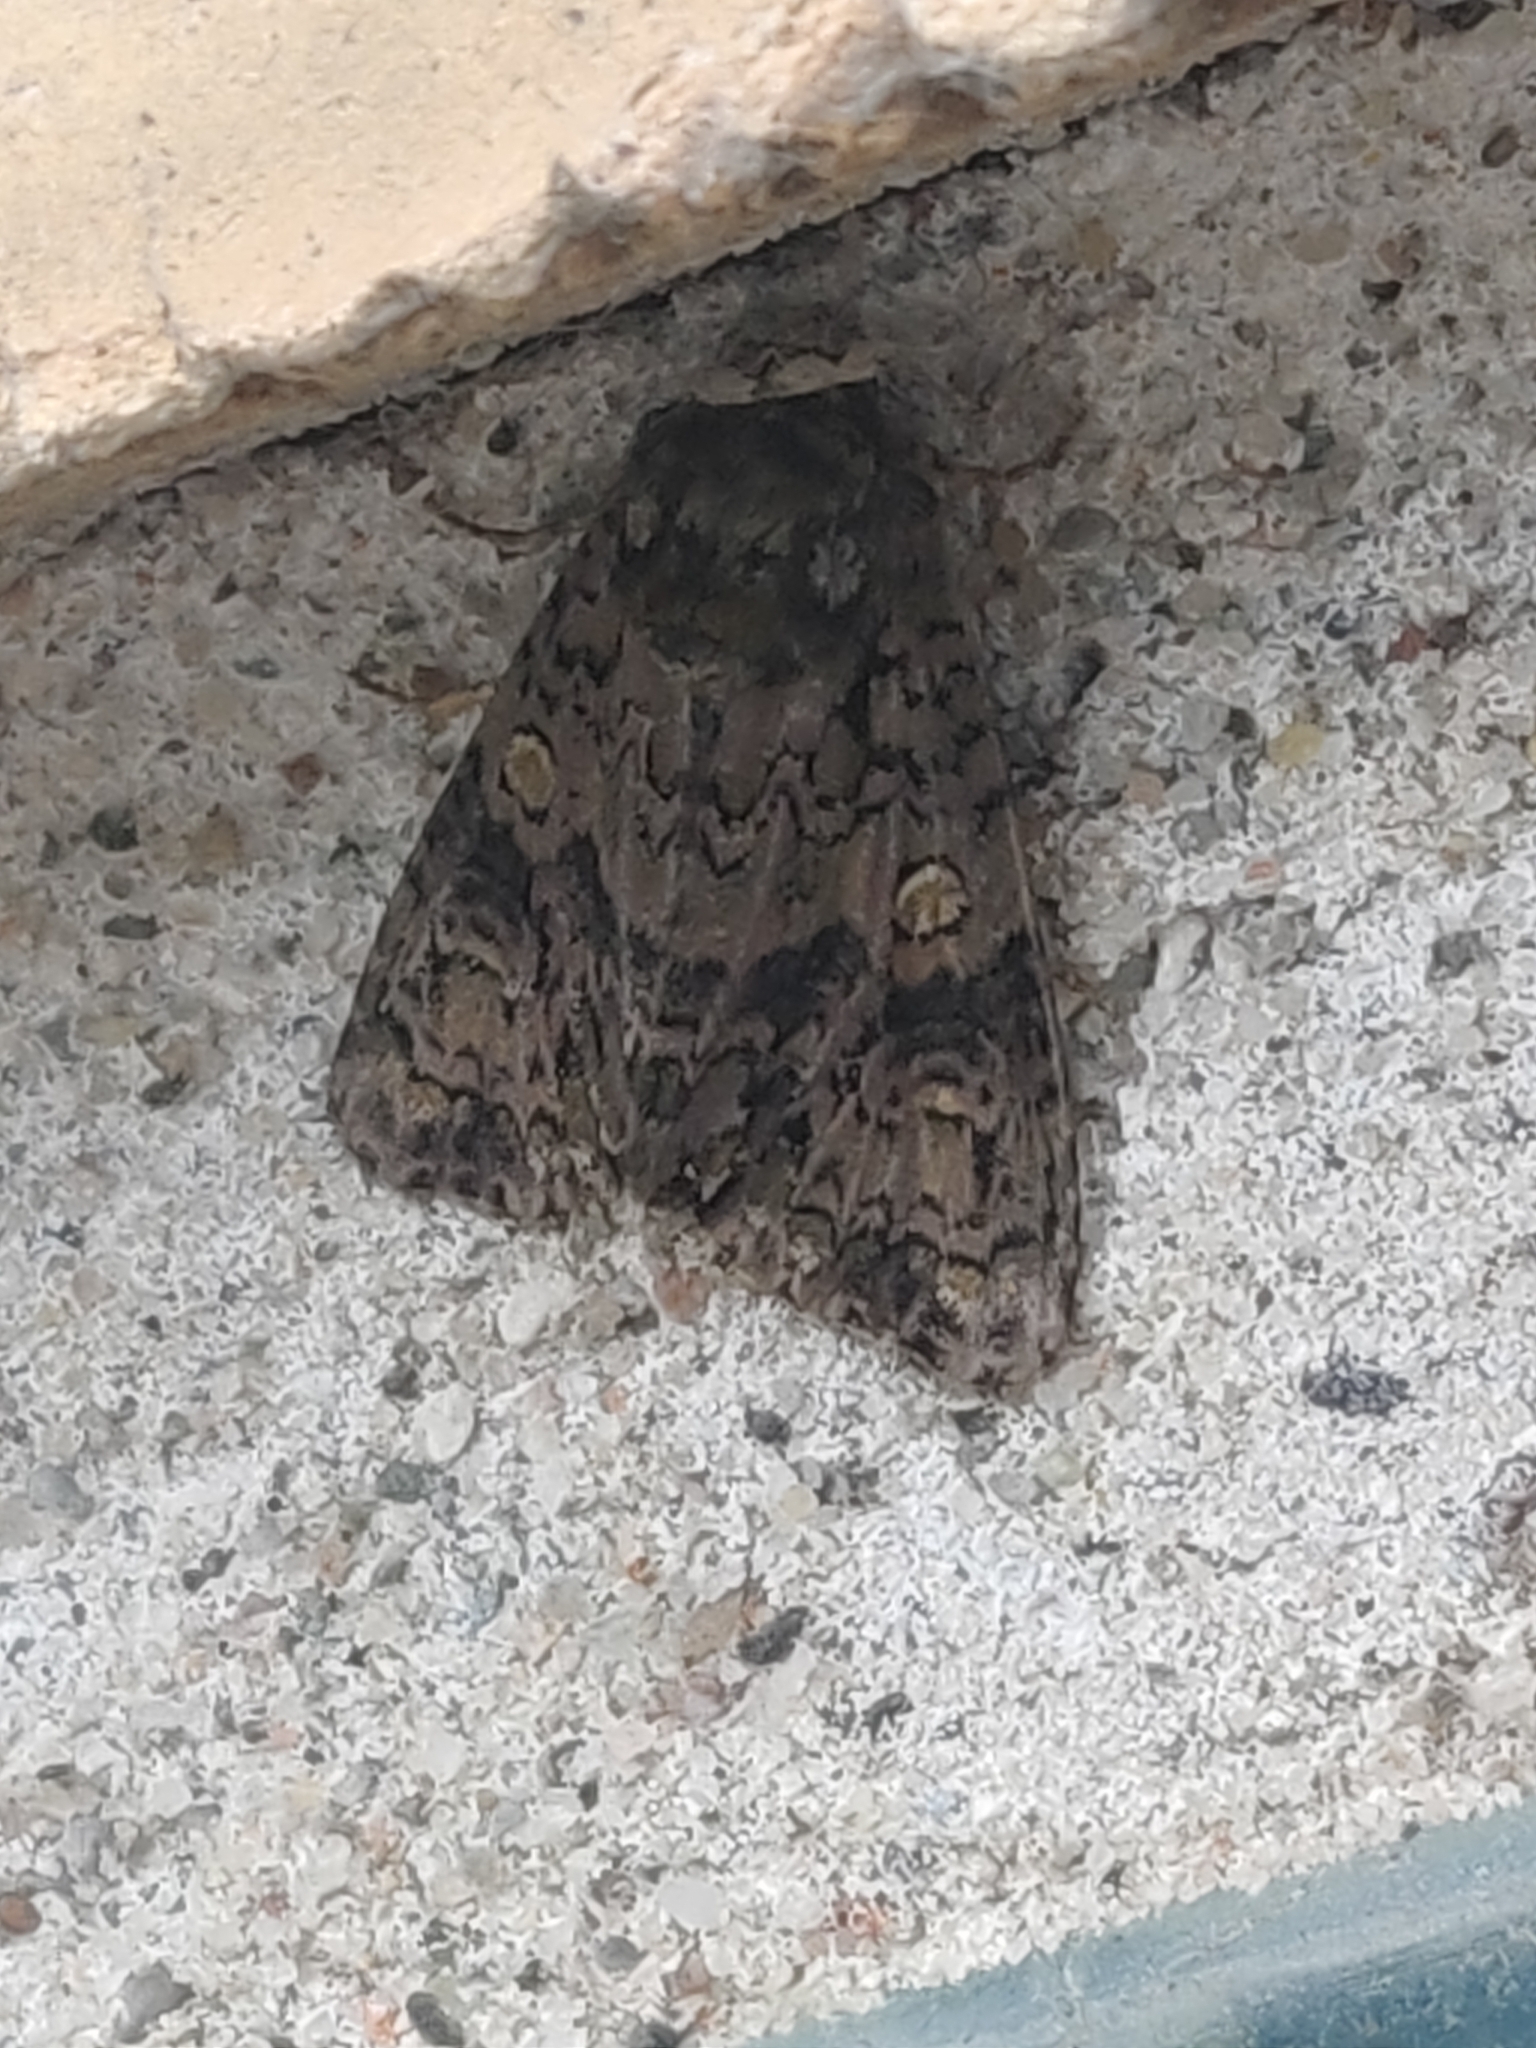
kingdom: Animalia
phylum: Arthropoda
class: Insecta
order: Lepidoptera
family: Noctuidae
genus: Craniophora
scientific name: Craniophora ligustri
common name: Coronet
